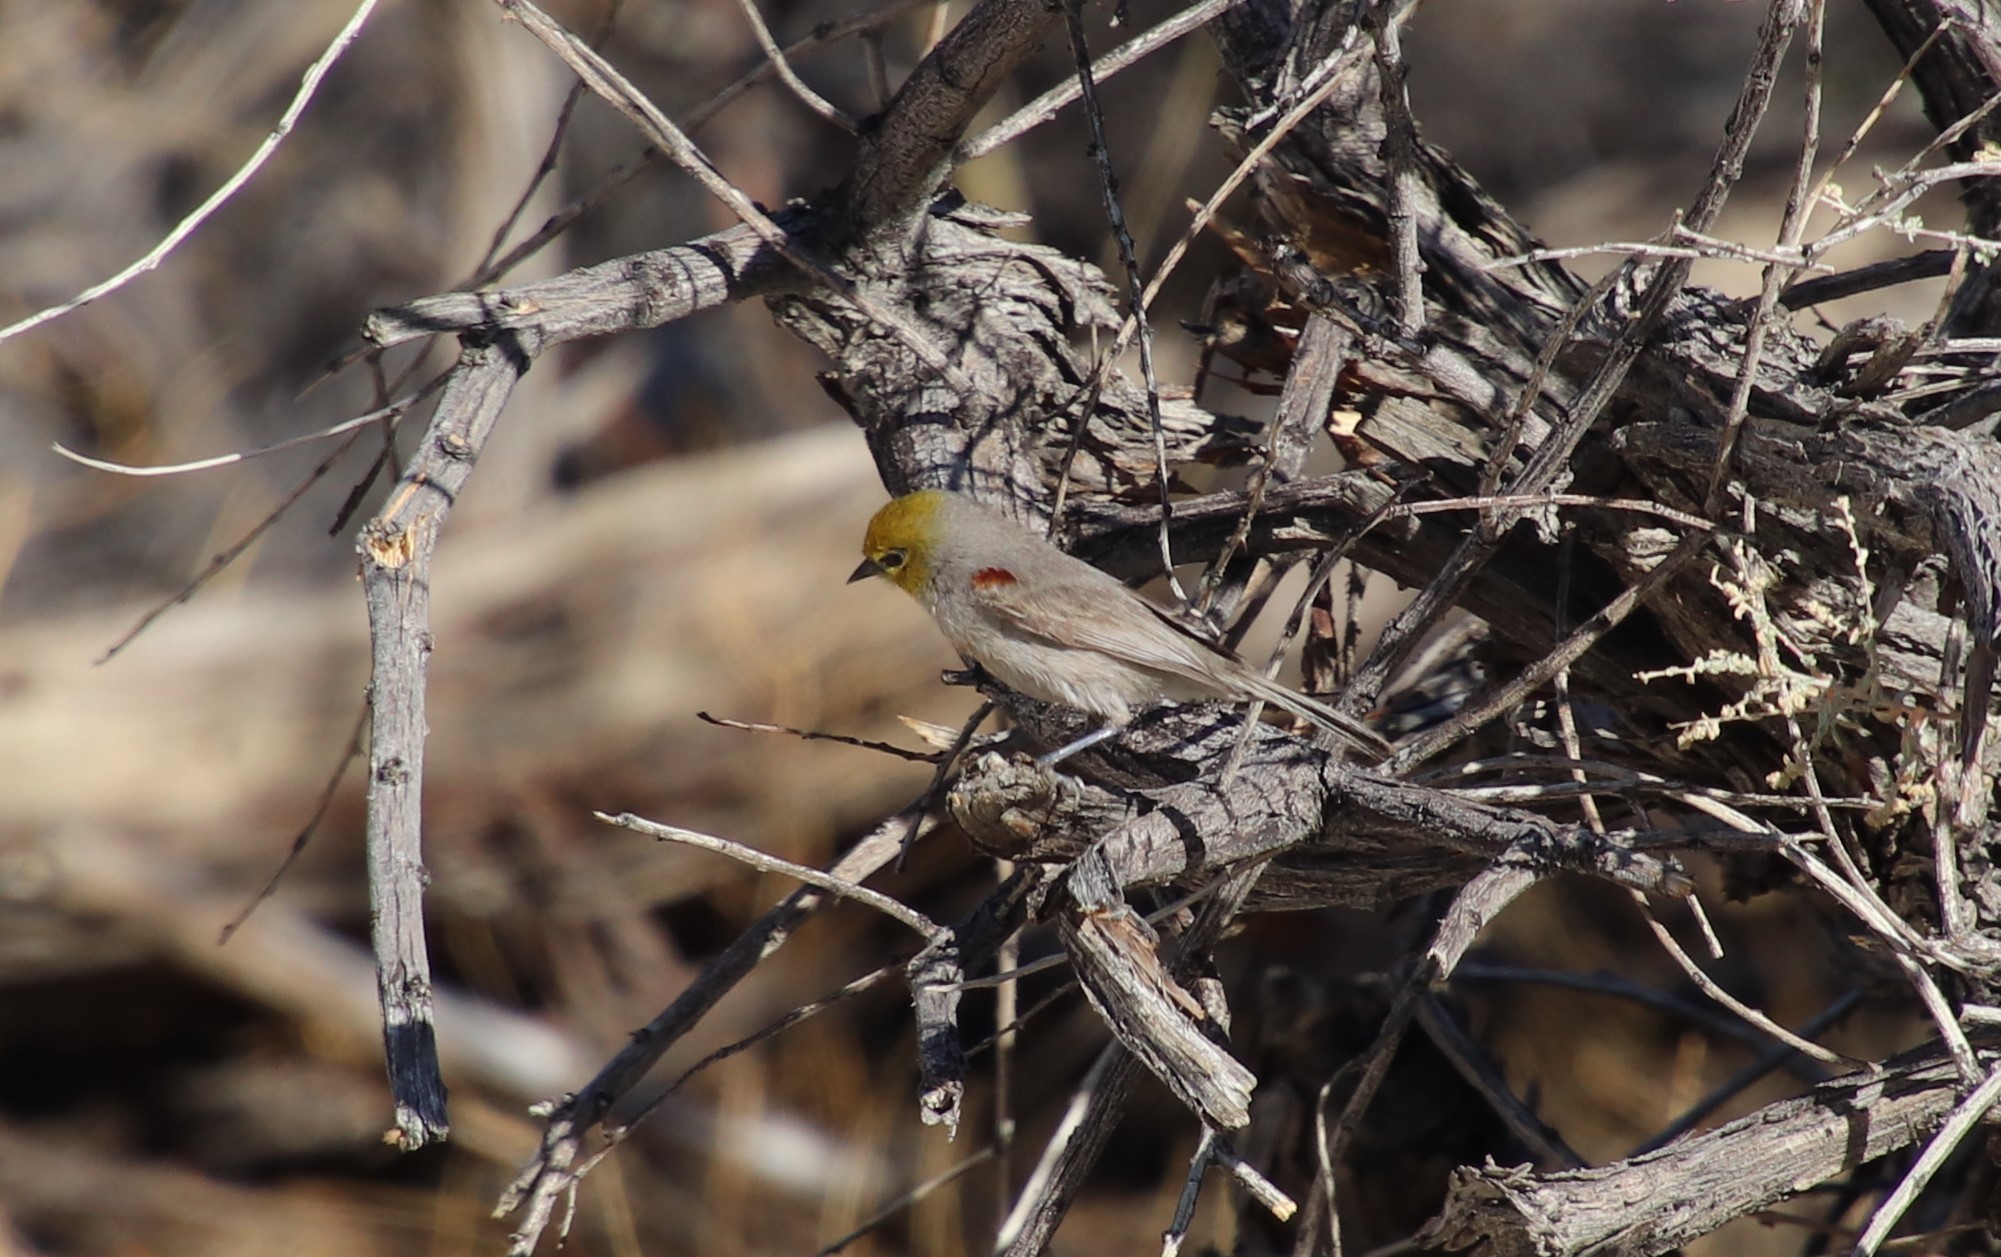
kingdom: Animalia
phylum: Chordata
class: Aves
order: Passeriformes
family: Remizidae
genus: Auriparus
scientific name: Auriparus flaviceps
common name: Verdin
